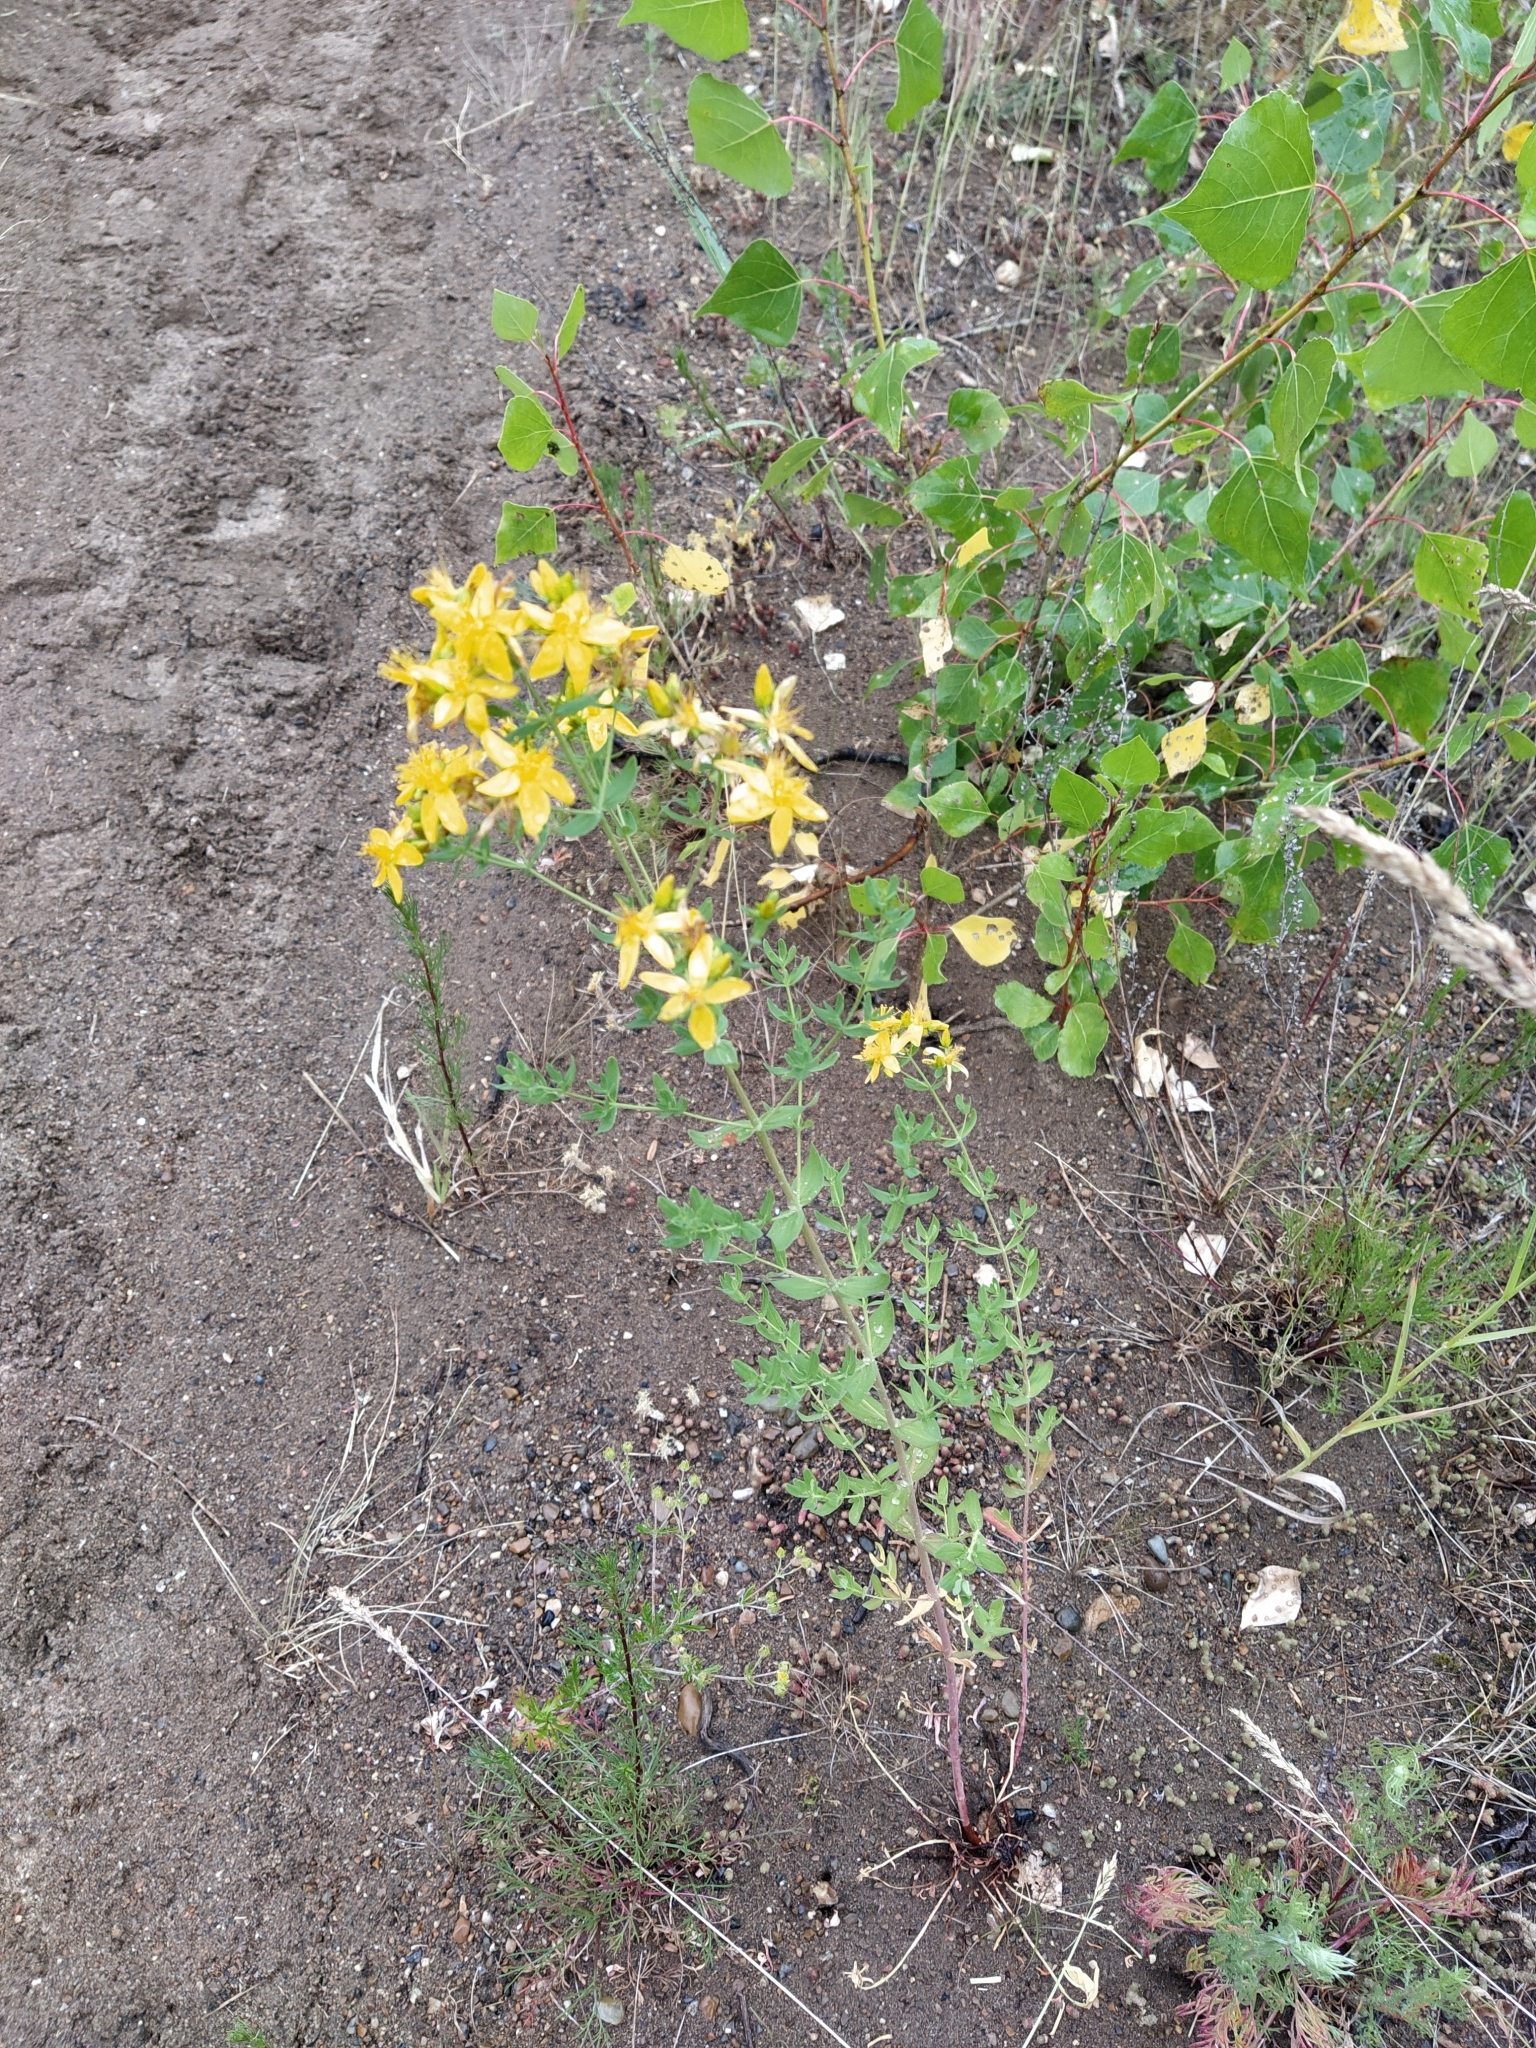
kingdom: Plantae
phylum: Tracheophyta
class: Magnoliopsida
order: Malpighiales
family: Hypericaceae
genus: Hypericum
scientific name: Hypericum perforatum
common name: Common st. johnswort
